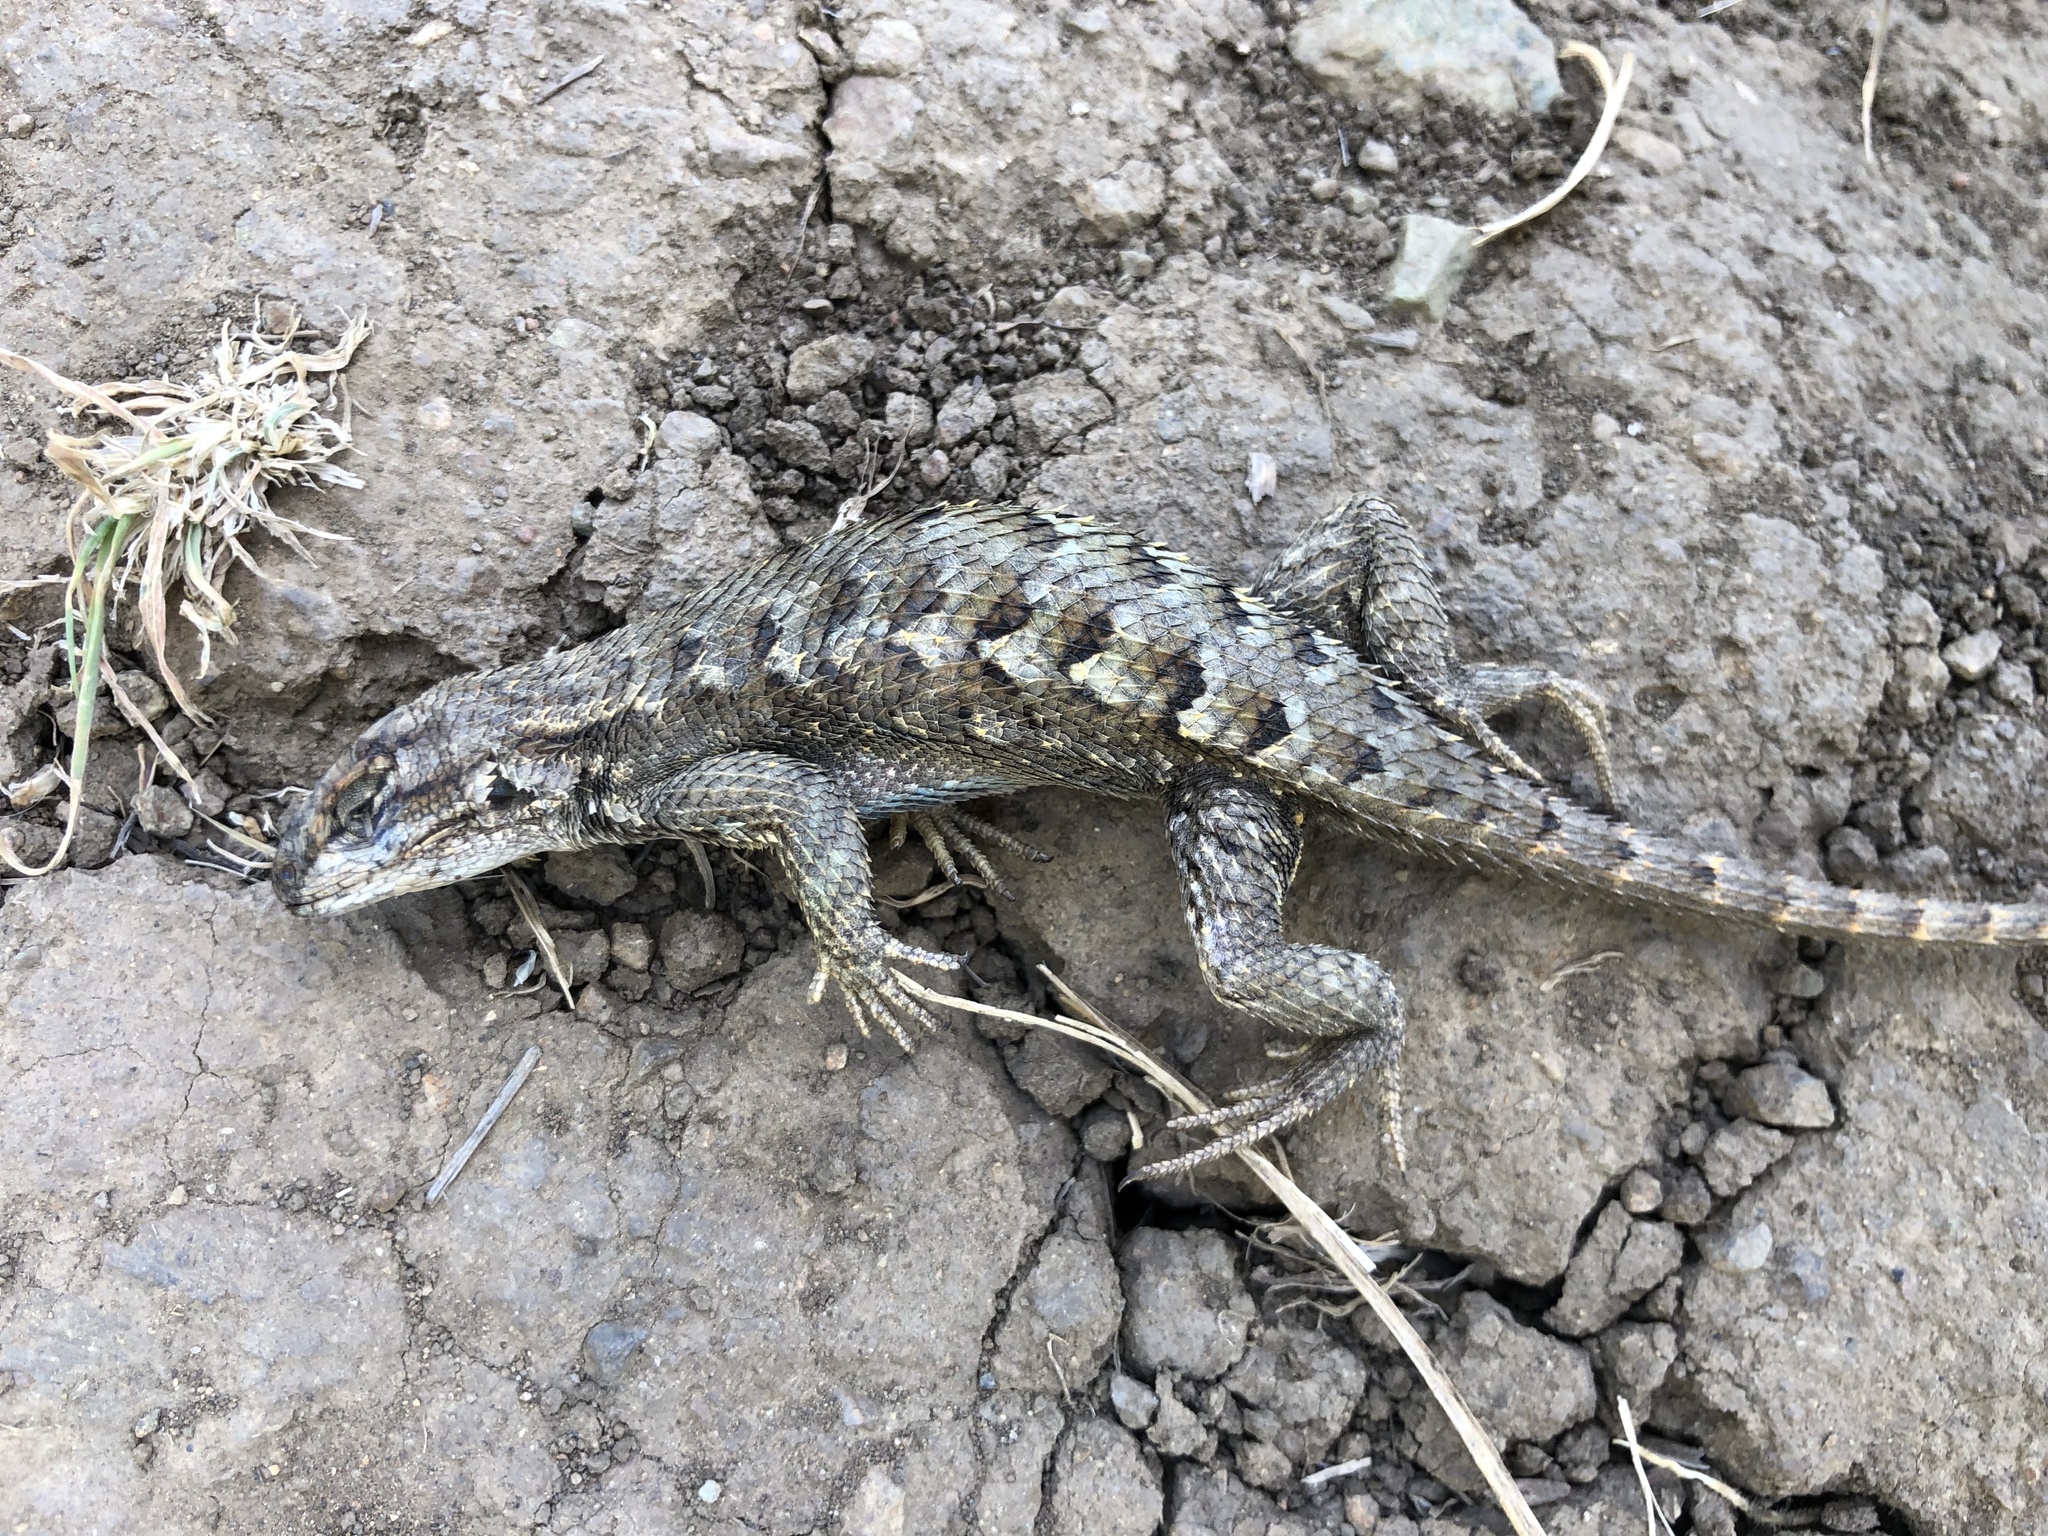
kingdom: Animalia
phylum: Chordata
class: Squamata
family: Phrynosomatidae
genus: Sceloporus
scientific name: Sceloporus occidentalis
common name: Western fence lizard
